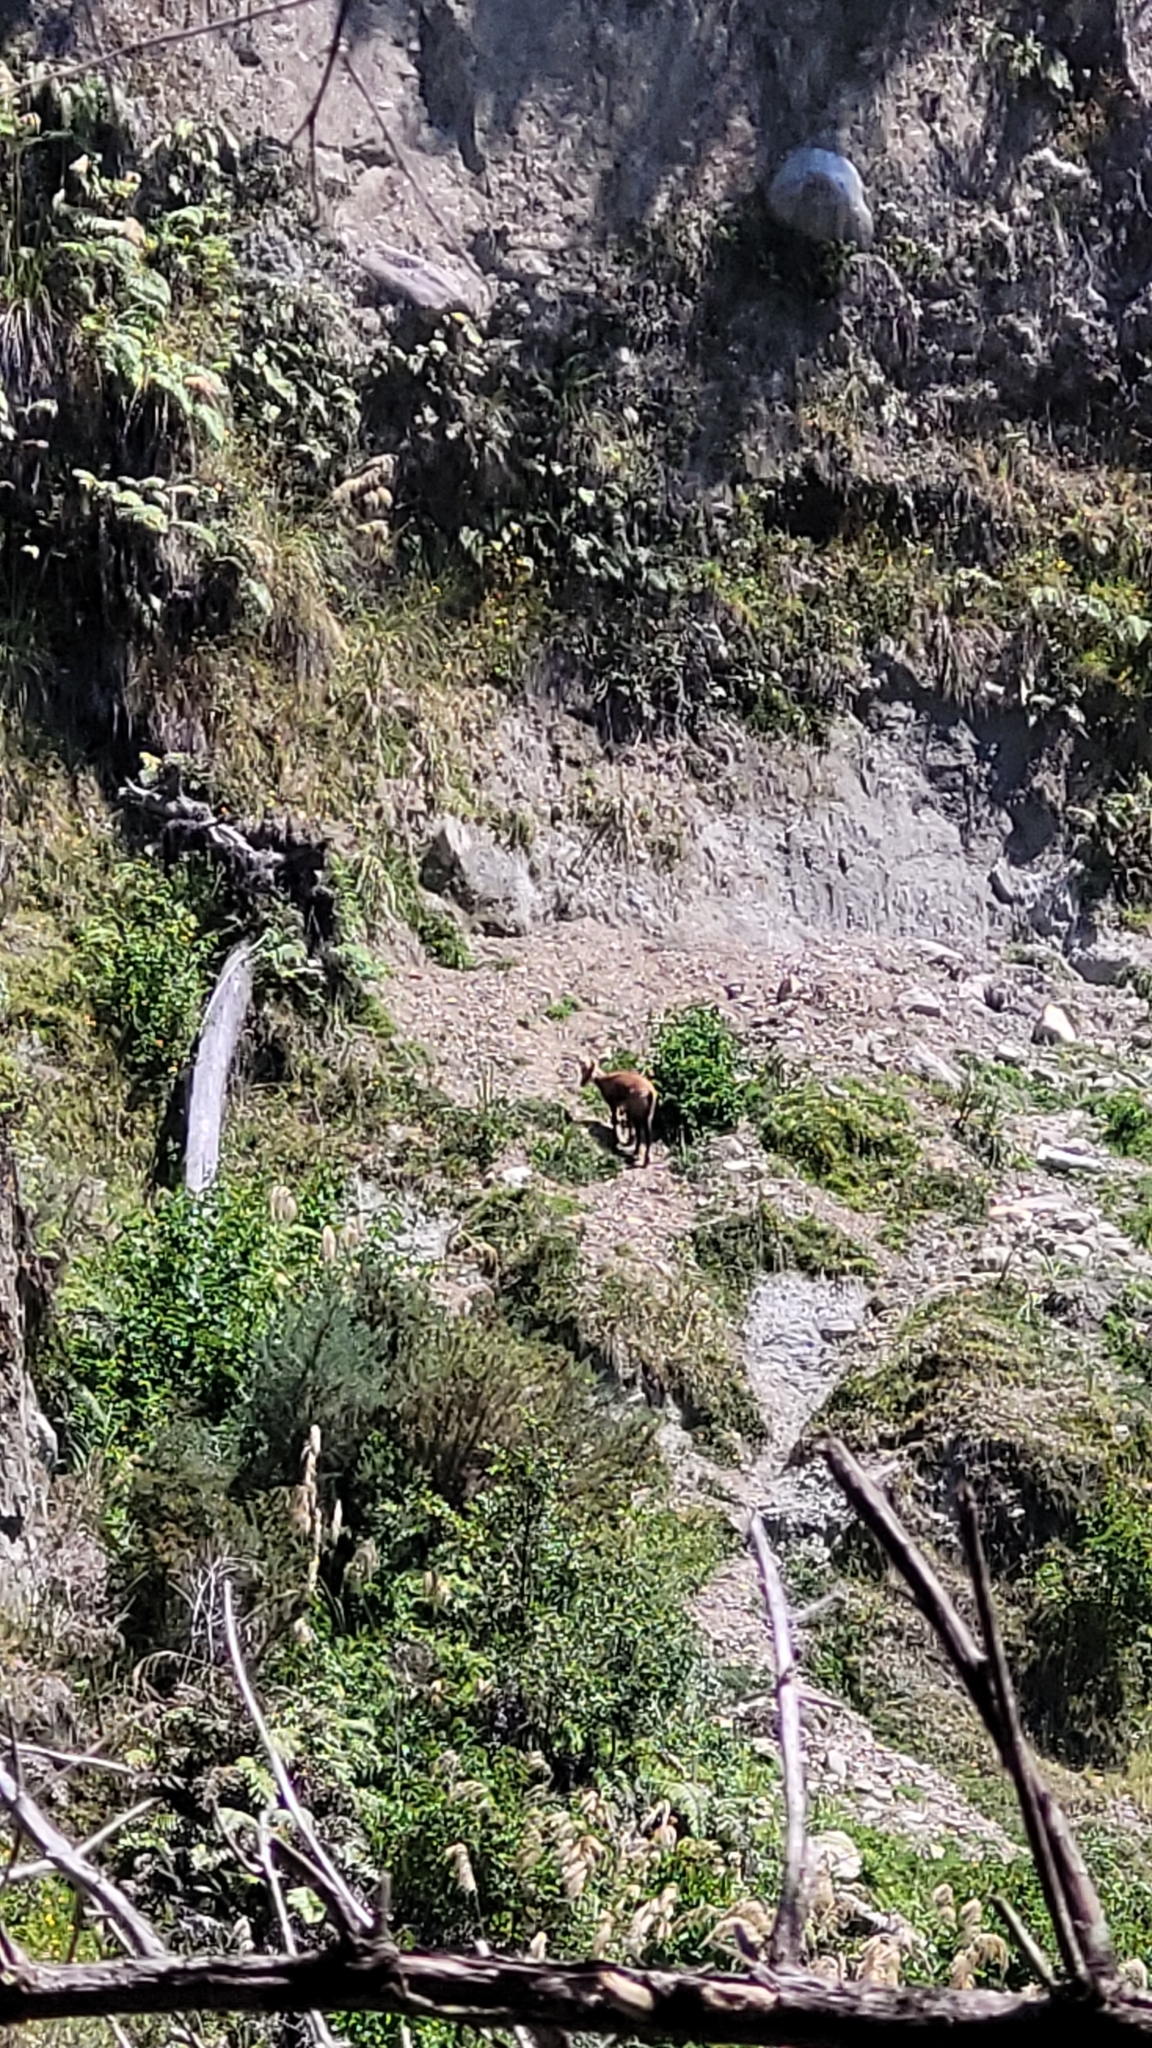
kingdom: Animalia
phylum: Chordata
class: Mammalia
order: Artiodactyla
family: Bovidae
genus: Rupicapra
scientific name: Rupicapra rupicapra
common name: Chamois
